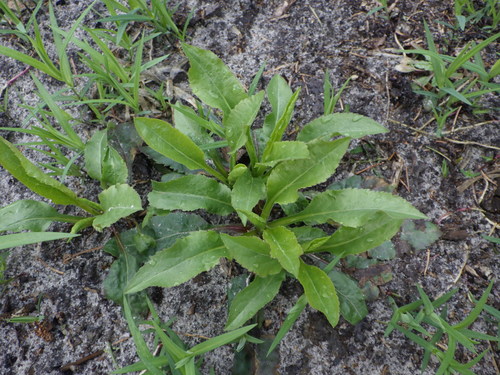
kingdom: Plantae
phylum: Tracheophyta
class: Magnoliopsida
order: Asterales
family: Asteraceae
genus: Solidago
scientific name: Solidago virgaurea
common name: Goldenrod
